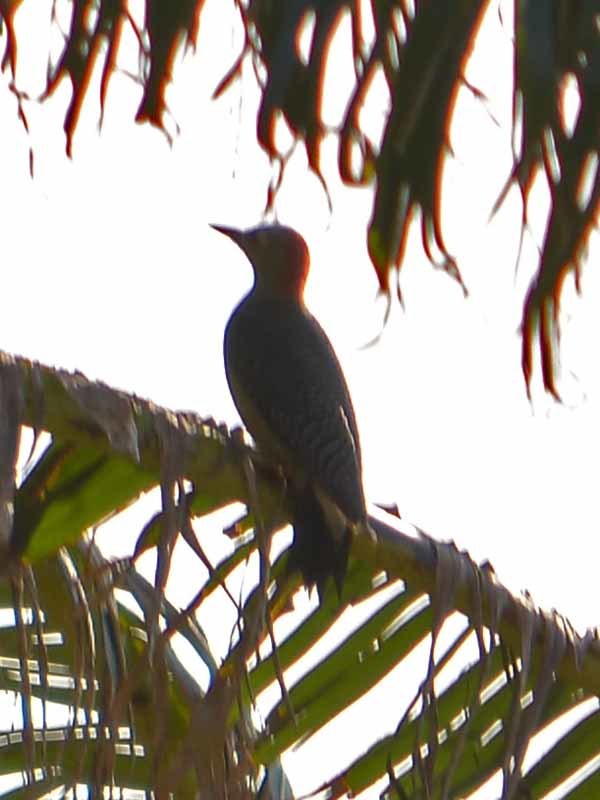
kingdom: Animalia
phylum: Chordata
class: Aves
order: Piciformes
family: Picidae
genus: Melanerpes
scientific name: Melanerpes aurifrons
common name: Golden-fronted woodpecker
